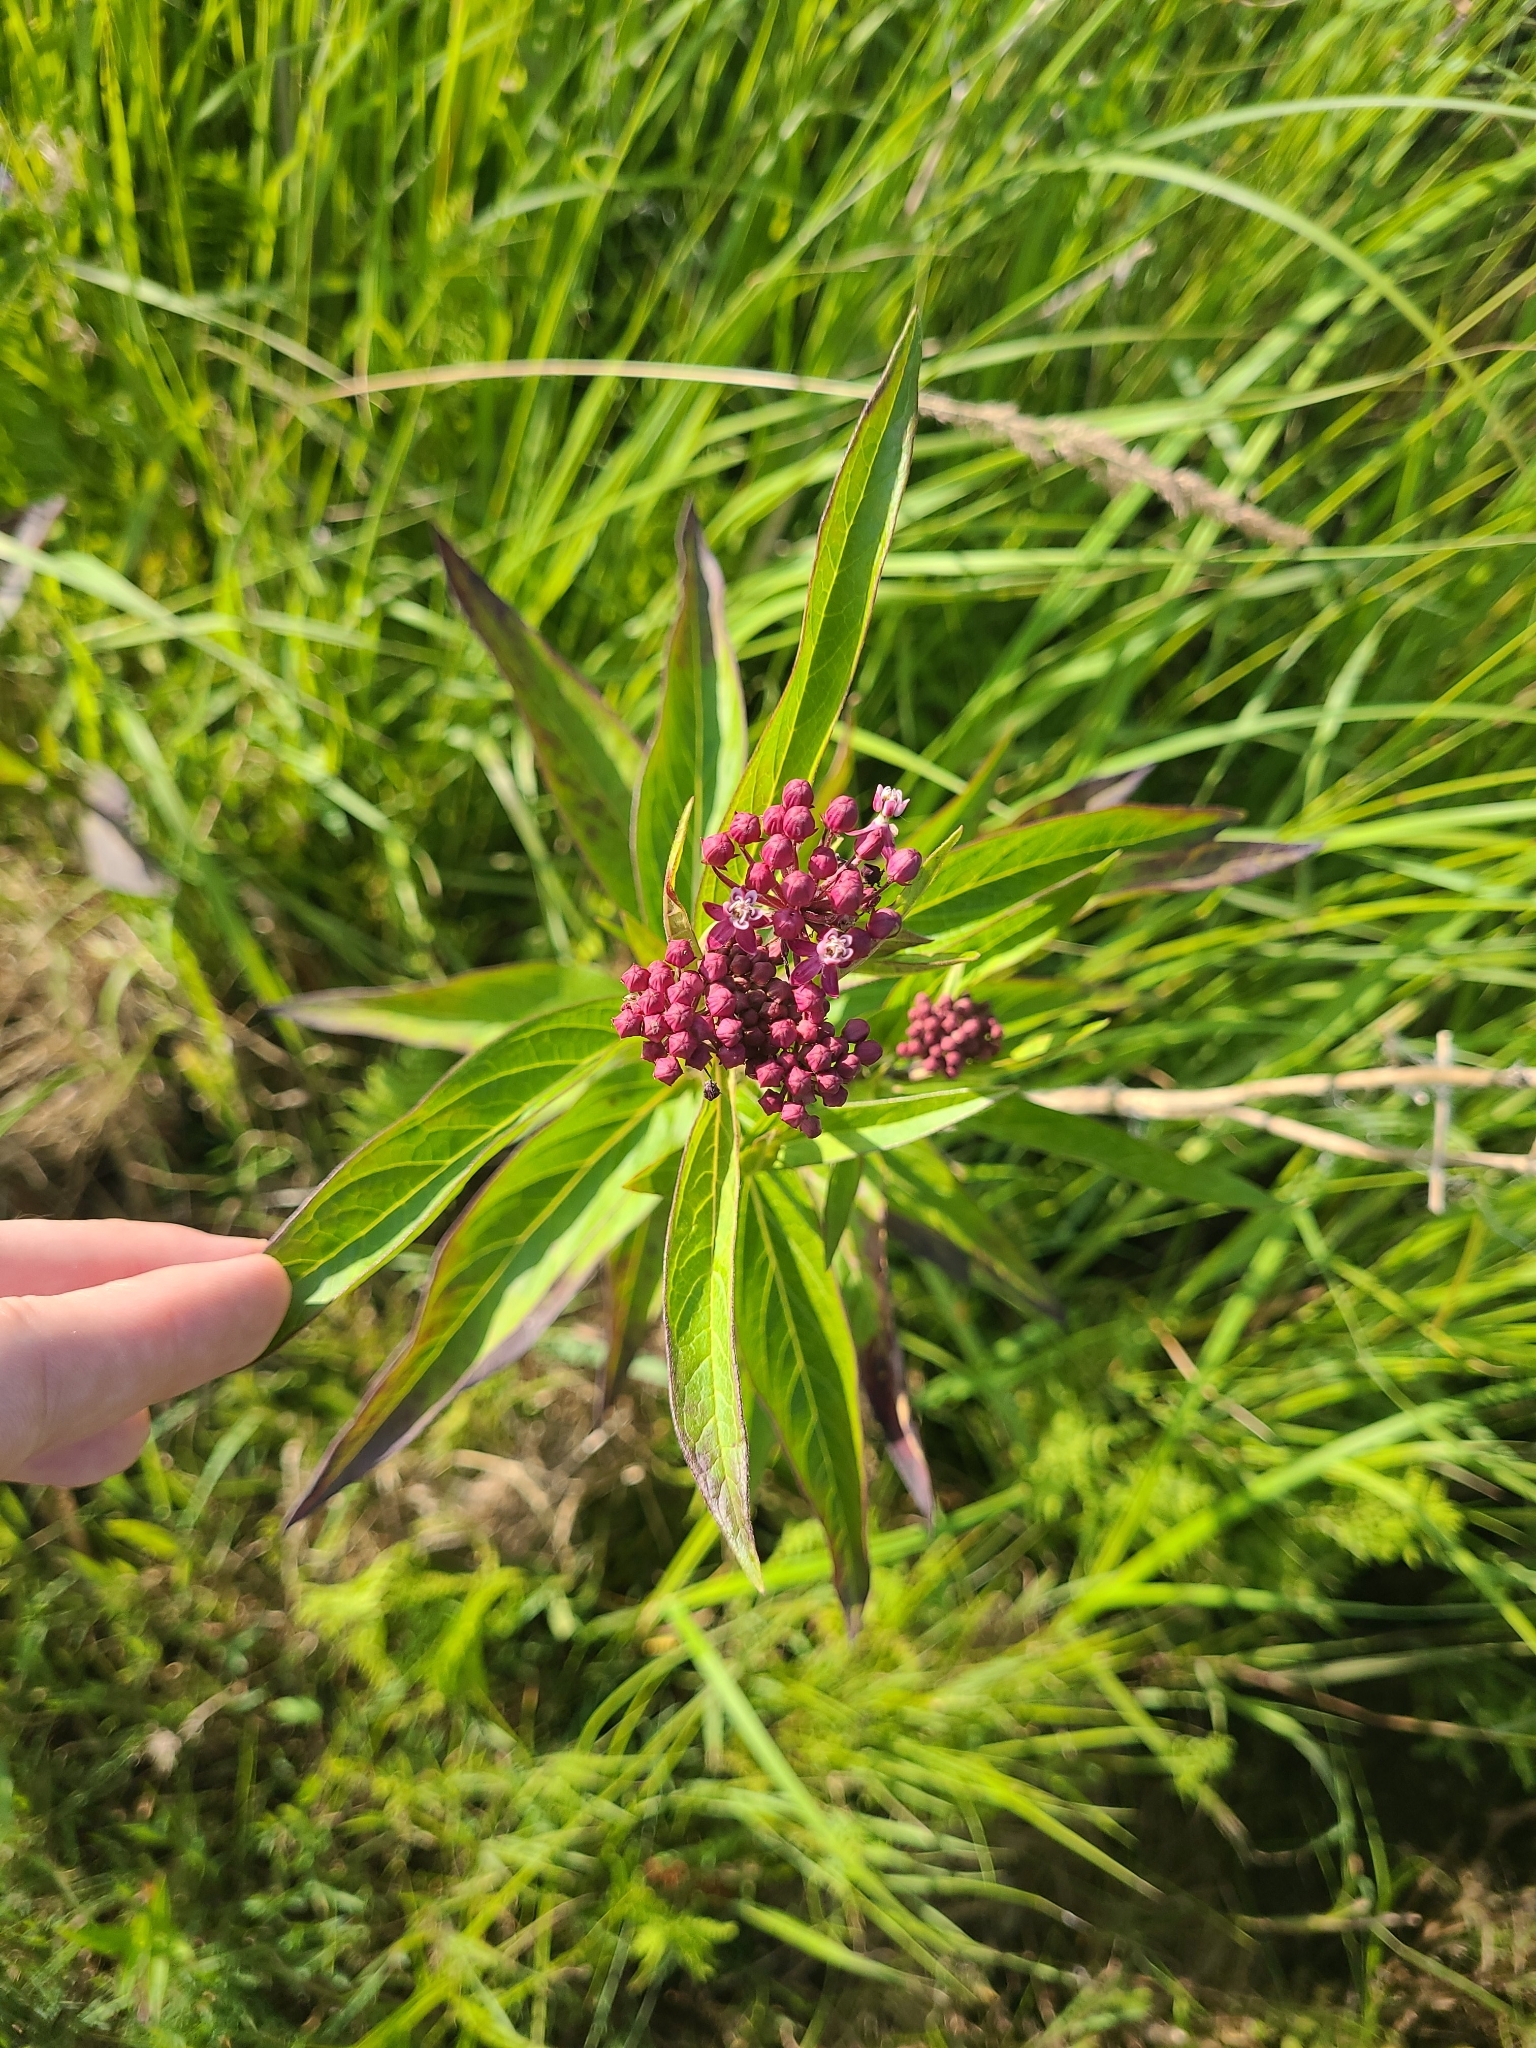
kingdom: Plantae
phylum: Tracheophyta
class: Magnoliopsida
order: Gentianales
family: Apocynaceae
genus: Asclepias
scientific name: Asclepias incarnata
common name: Swamp milkweed
